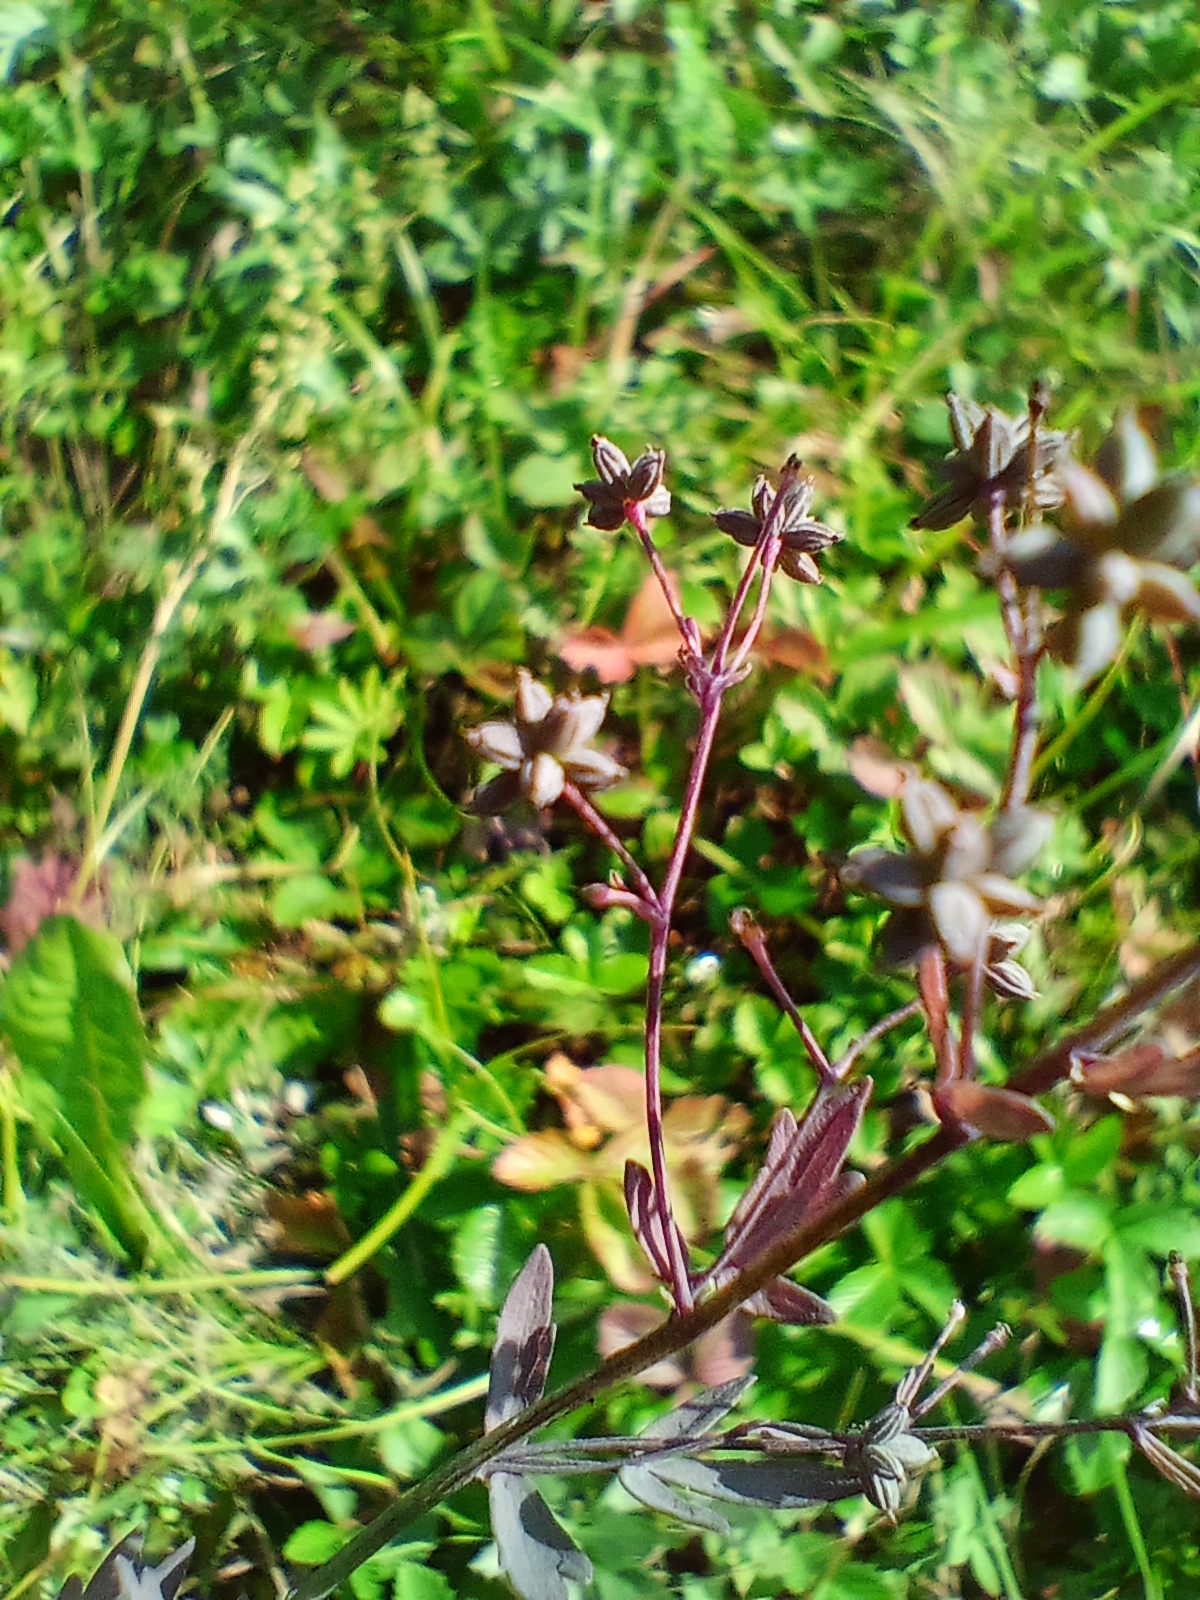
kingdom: Plantae
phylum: Tracheophyta
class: Magnoliopsida
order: Ranunculales
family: Ranunculaceae
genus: Thalictrum
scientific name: Thalictrum simplex
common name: Small meadow-rue
